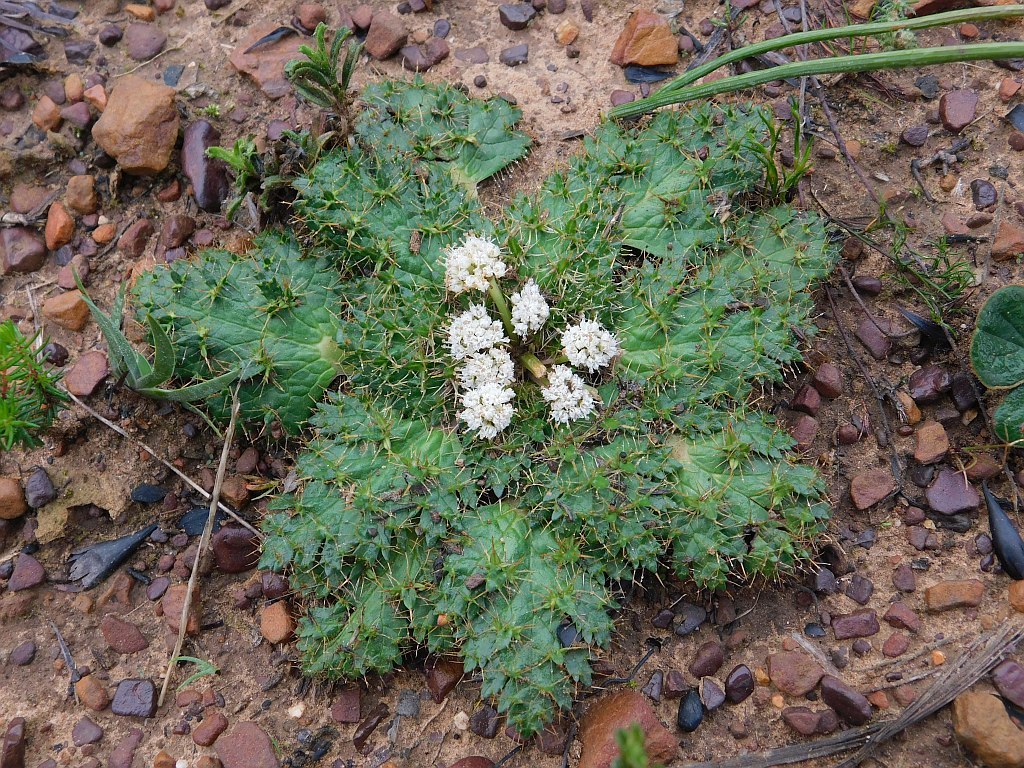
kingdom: Plantae
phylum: Tracheophyta
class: Magnoliopsida
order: Apiales
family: Apiaceae
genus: Arctopus
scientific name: Arctopus echinatus
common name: Platdoring
